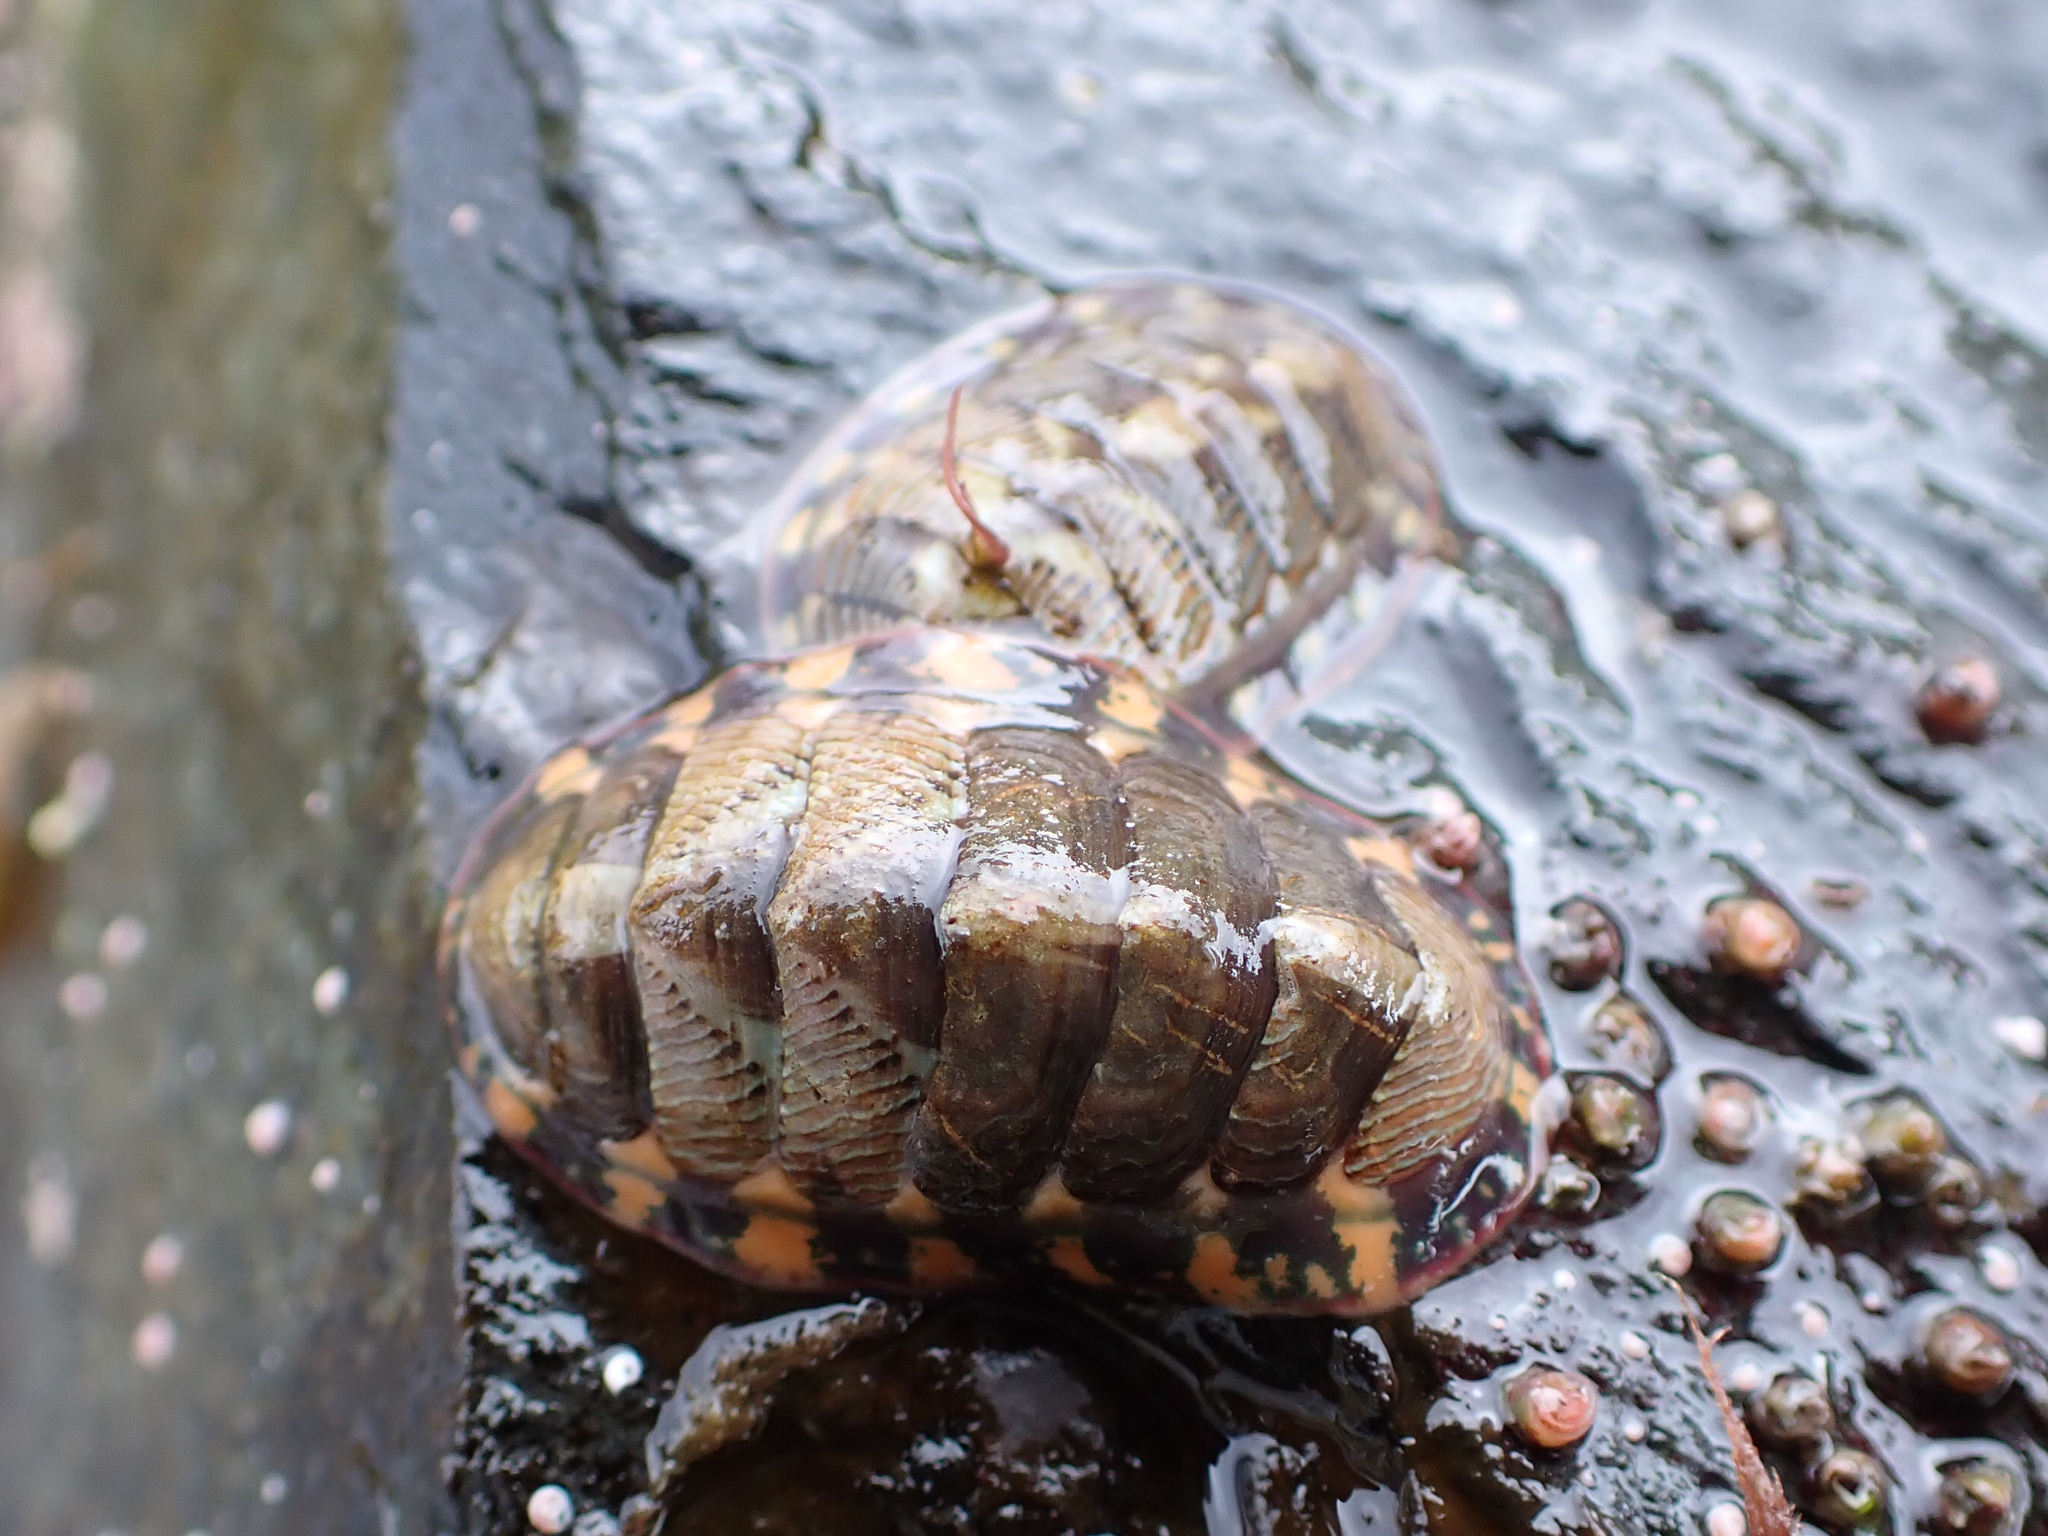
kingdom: Animalia
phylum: Mollusca
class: Polyplacophora
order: Chitonida
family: Tonicellidae
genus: Tonicella
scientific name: Tonicella lineata
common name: Lined chiton
